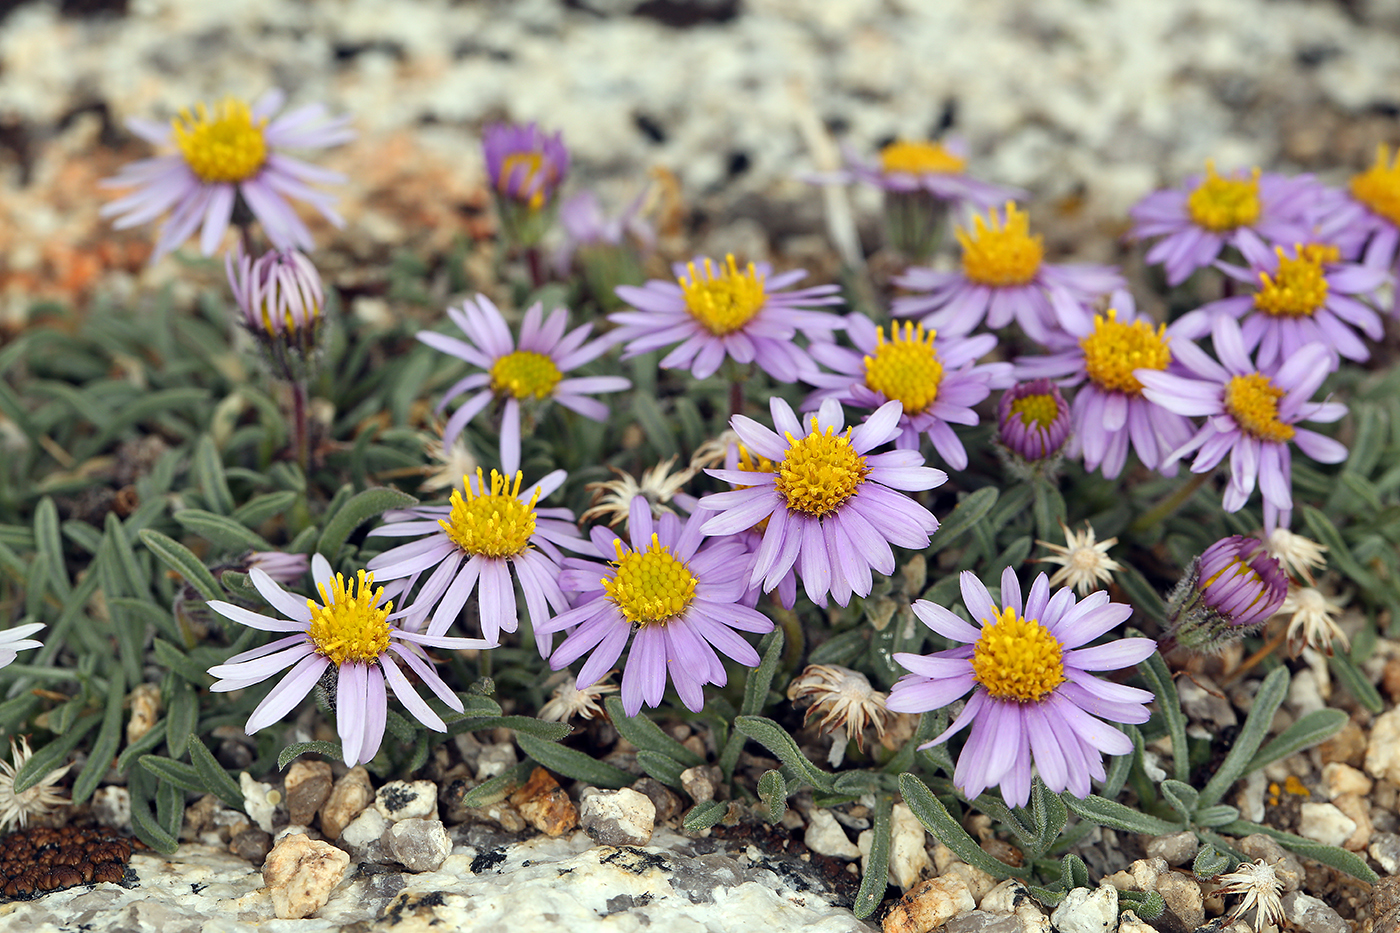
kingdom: Plantae
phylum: Tracheophyta
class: Magnoliopsida
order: Asterales
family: Asteraceae
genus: Erigeron
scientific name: Erigeron pygmaeus
